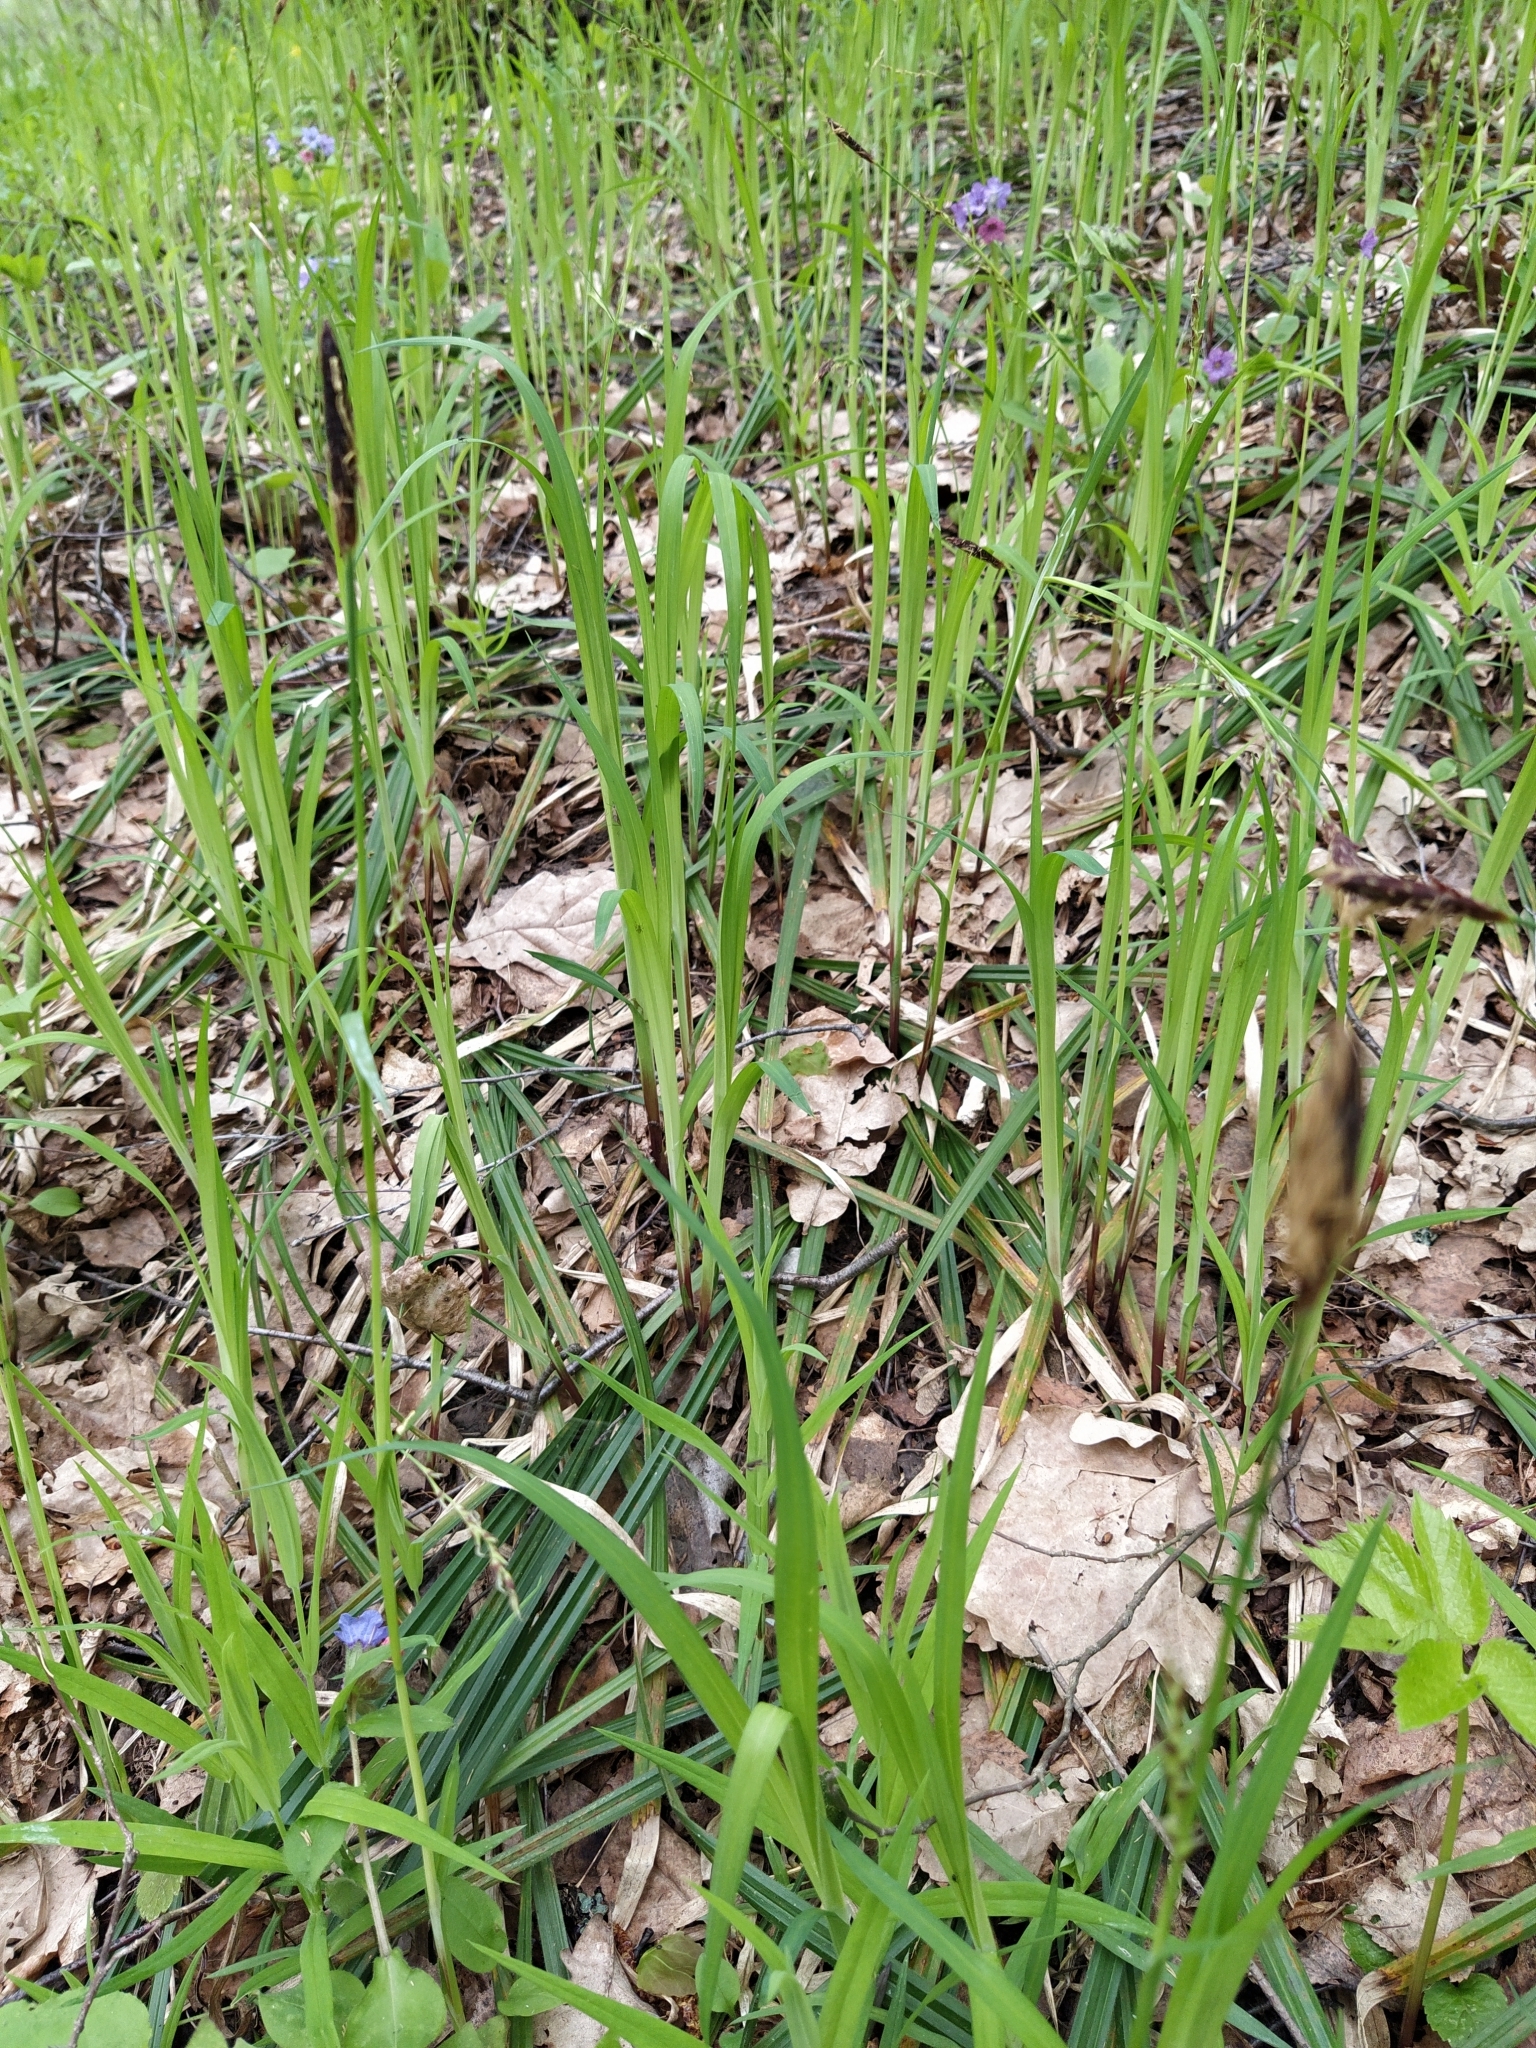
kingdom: Plantae
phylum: Tracheophyta
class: Liliopsida
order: Poales
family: Cyperaceae
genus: Carex
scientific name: Carex pilosa
